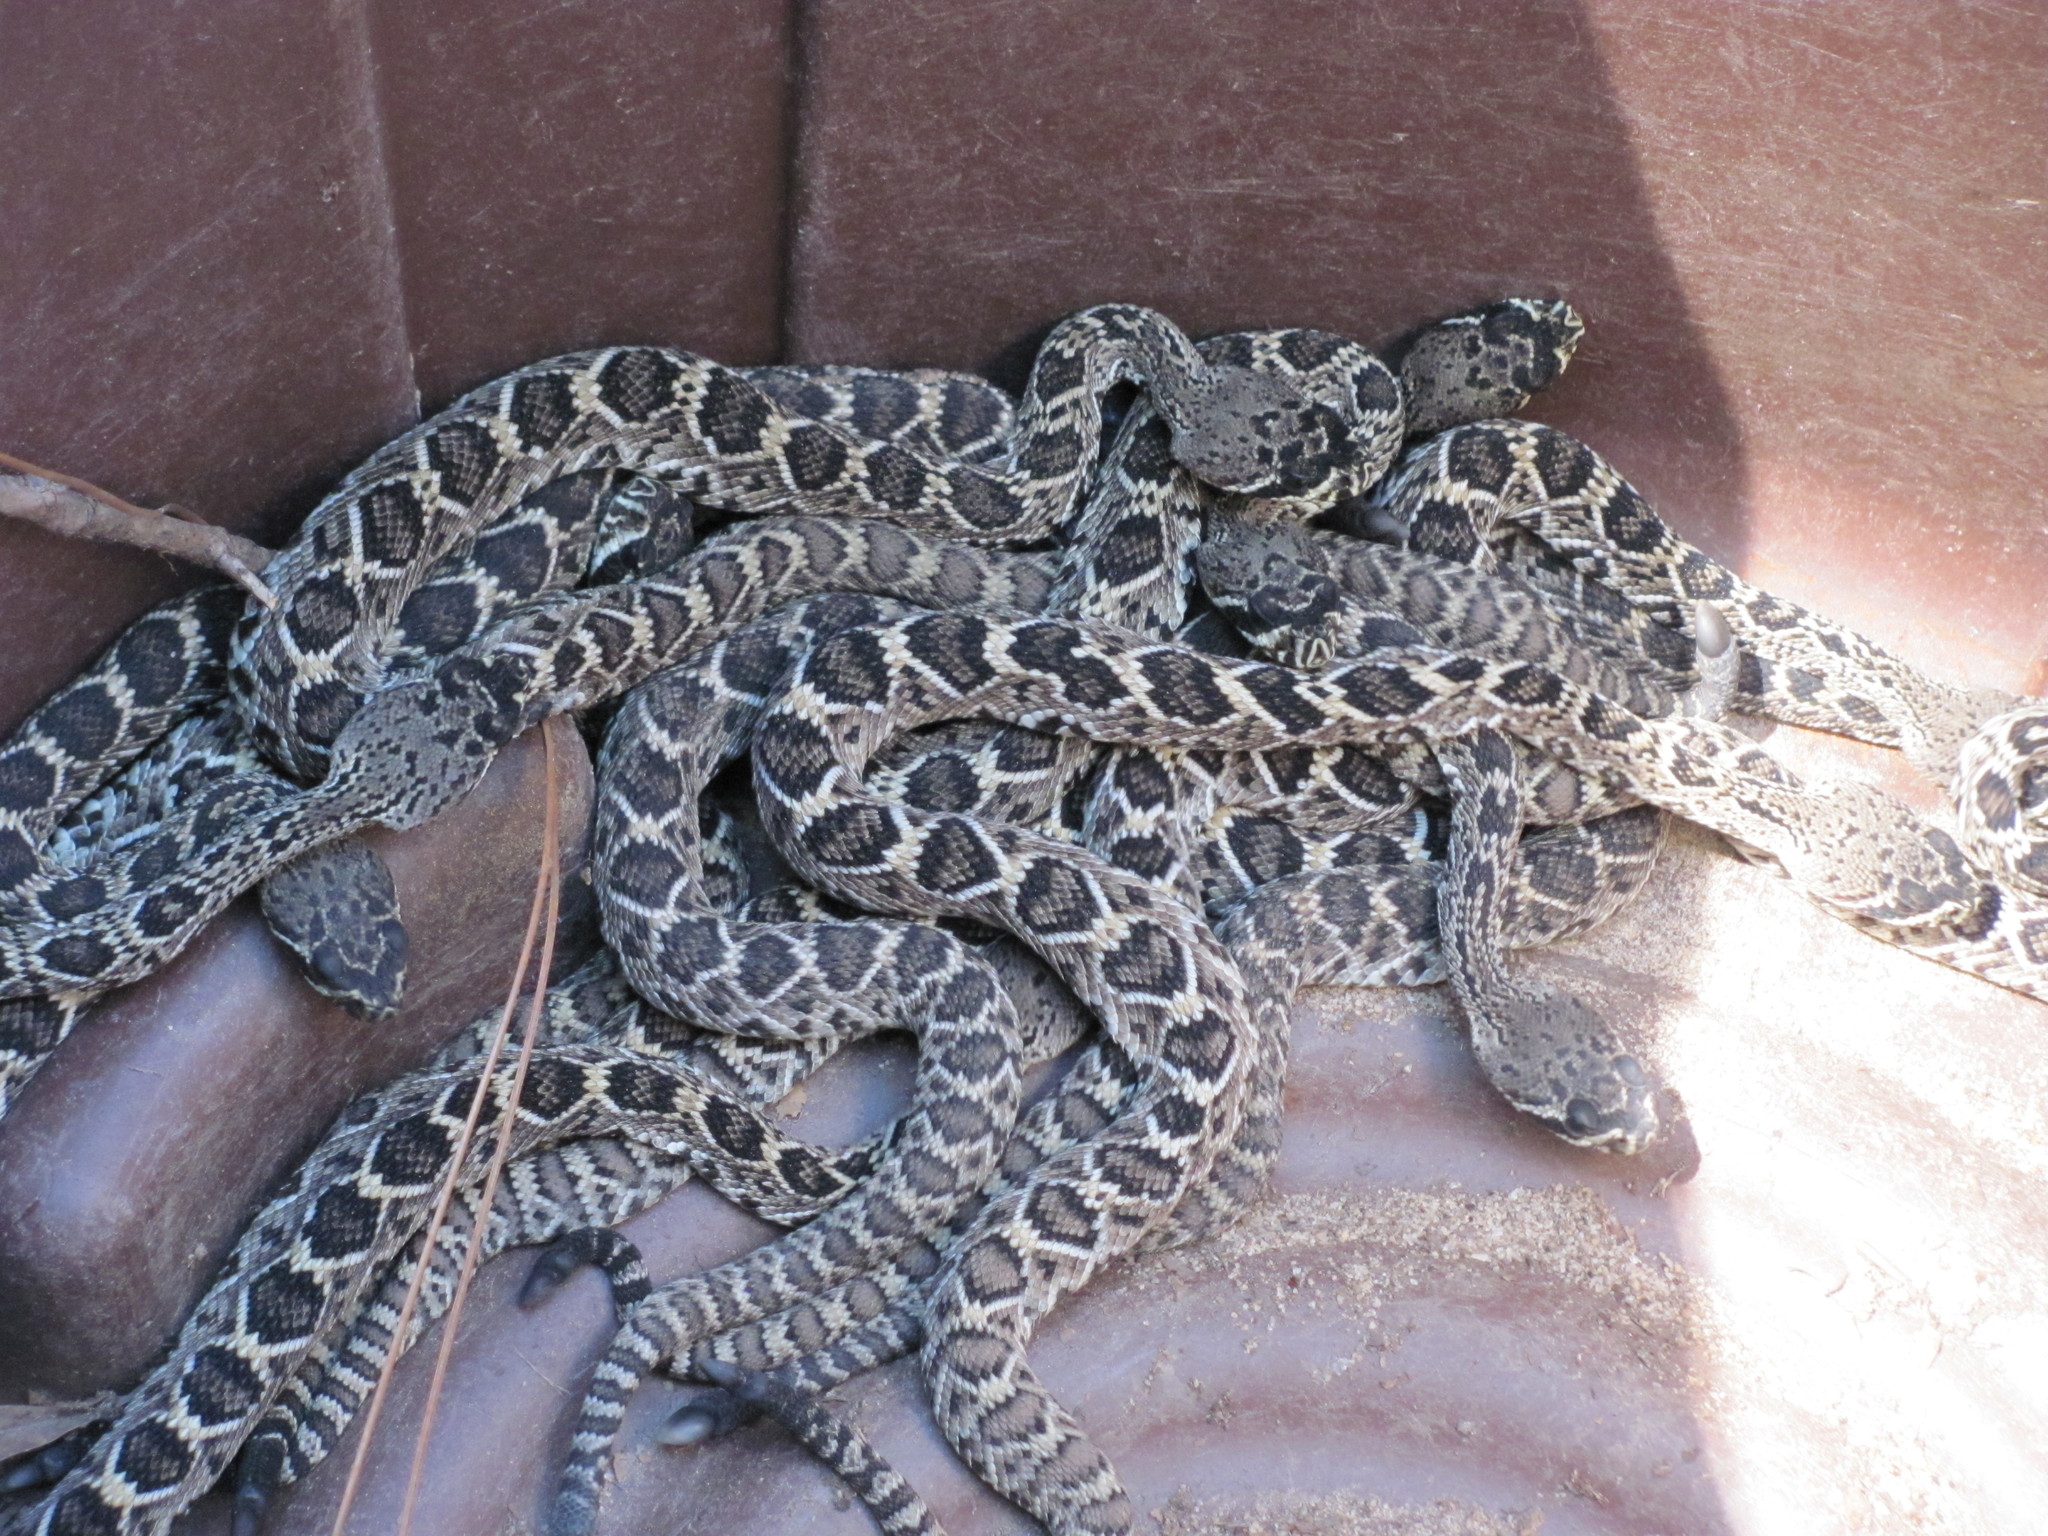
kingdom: Animalia
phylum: Chordata
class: Squamata
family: Viperidae
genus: Crotalus
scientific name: Crotalus adamanteus
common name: Eastern diamondback rattlesnake
